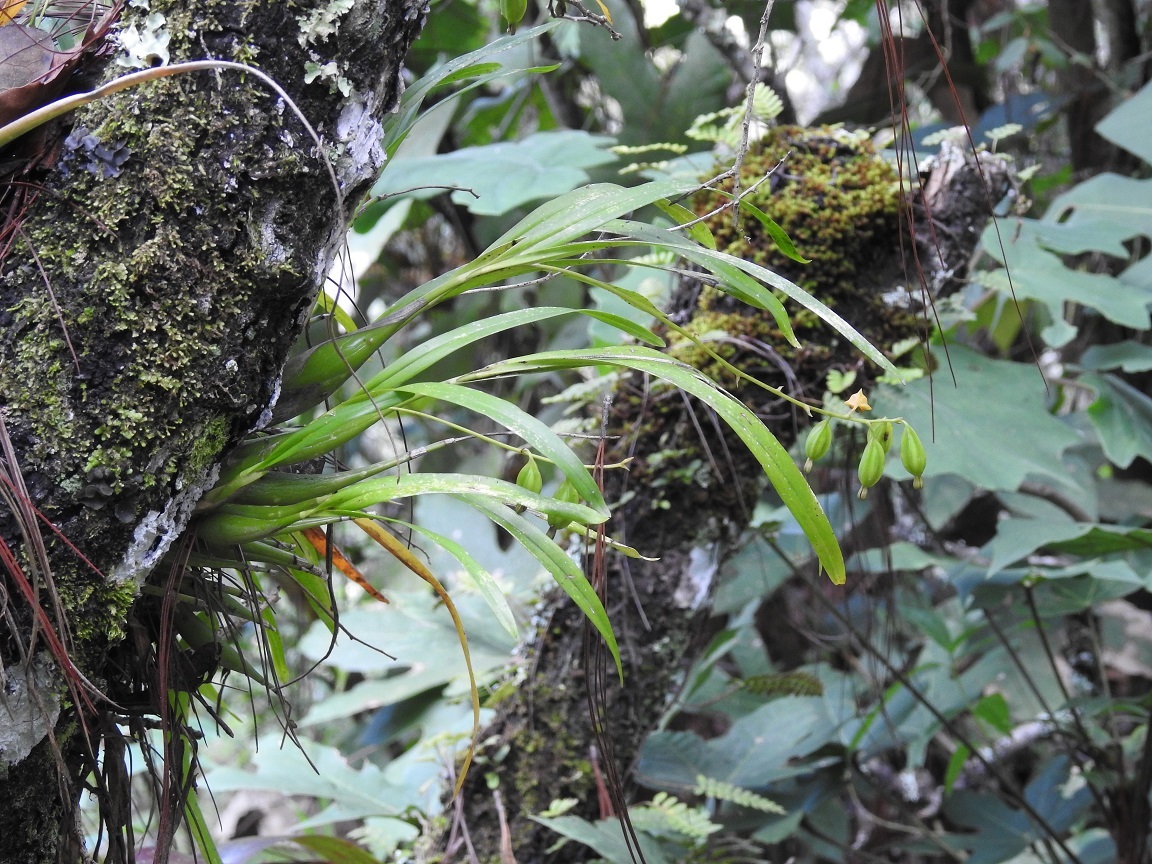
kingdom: Plantae
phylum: Tracheophyta
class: Liliopsida
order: Asparagales
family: Orchidaceae
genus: Prosthechea
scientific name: Prosthechea ochracea
